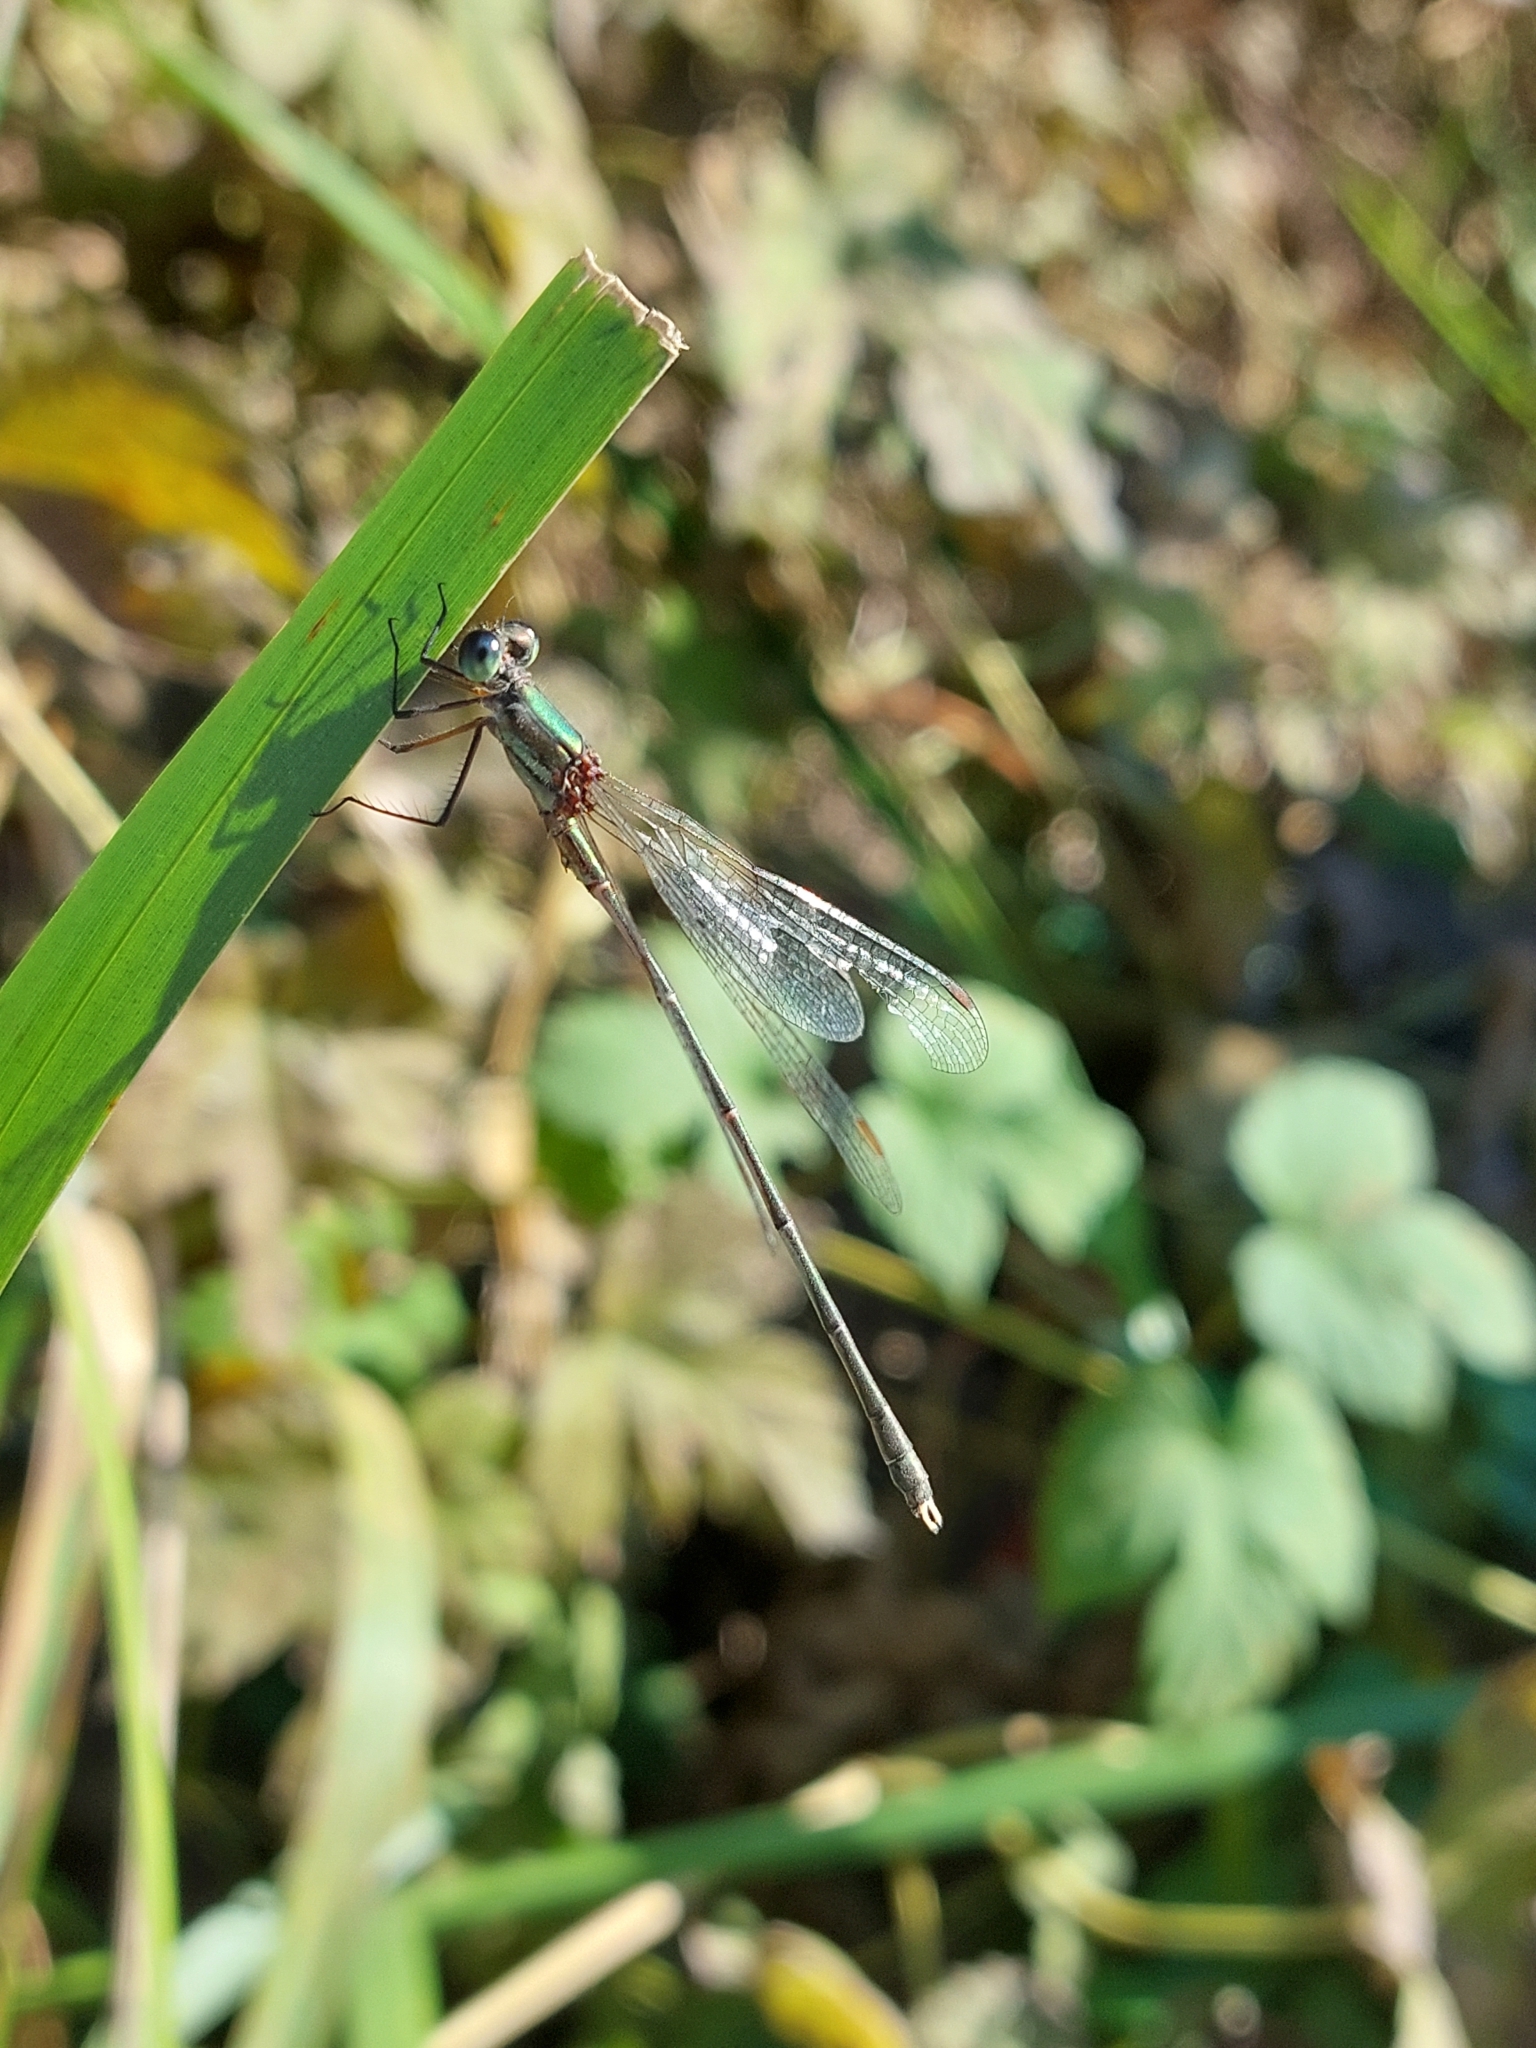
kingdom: Animalia
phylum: Arthropoda
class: Insecta
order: Odonata
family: Lestidae
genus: Chalcolestes
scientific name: Chalcolestes parvidens
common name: Eastern willow spreadwing
